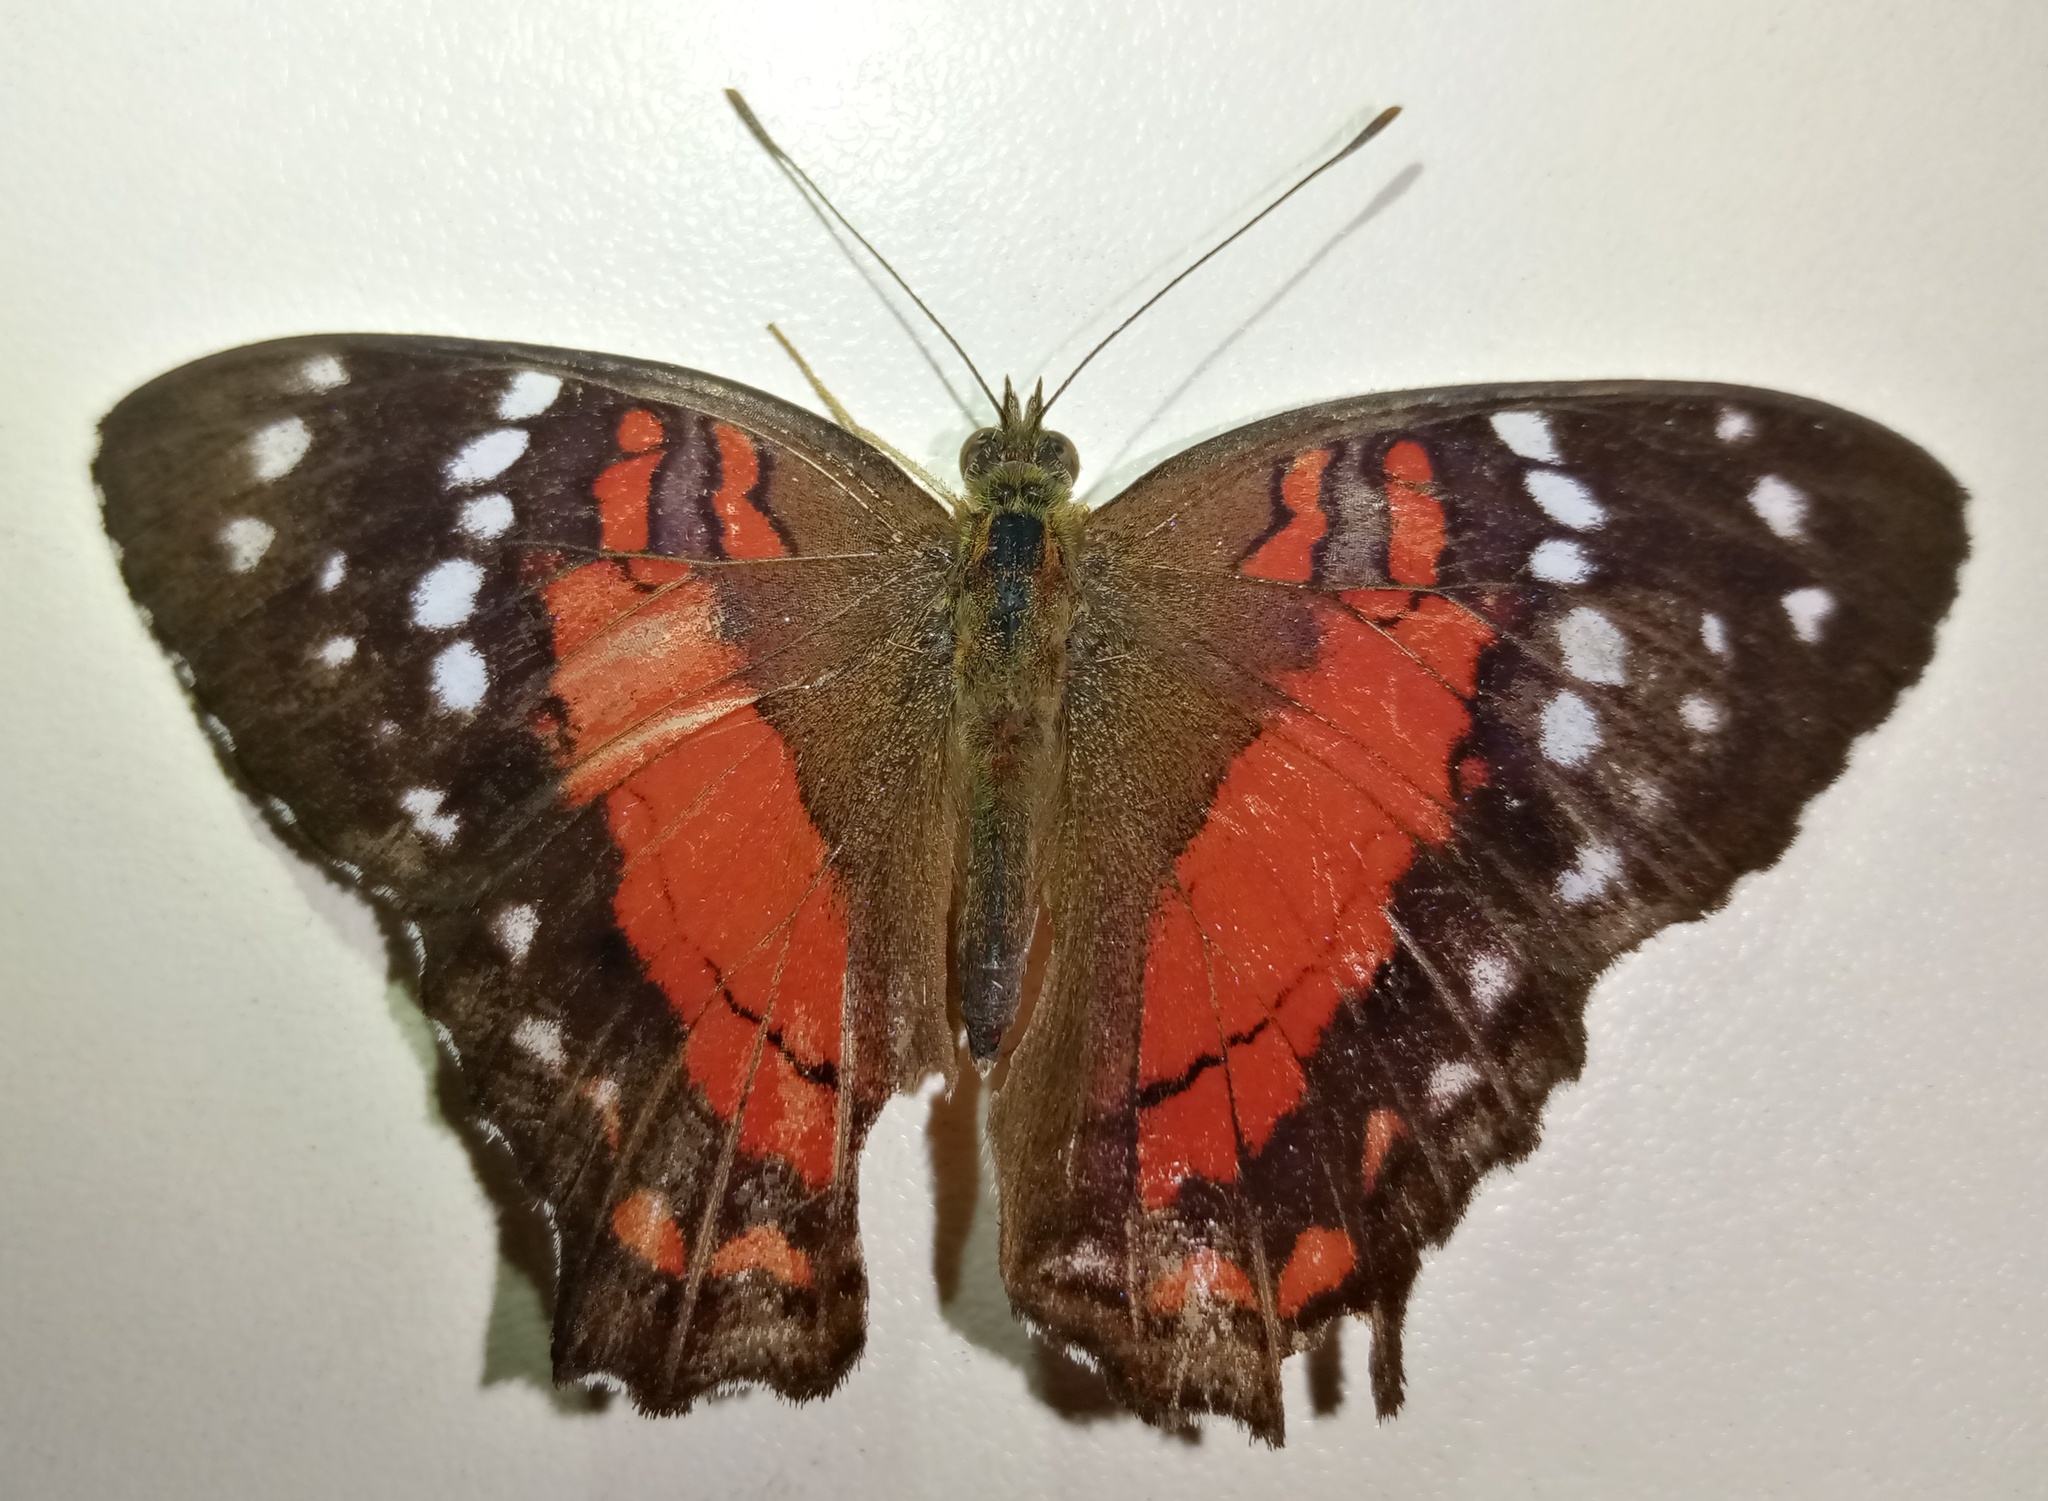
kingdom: Animalia
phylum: Arthropoda
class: Insecta
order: Lepidoptera
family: Nymphalidae
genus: Anartia
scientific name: Anartia amathea
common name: Red peacock
